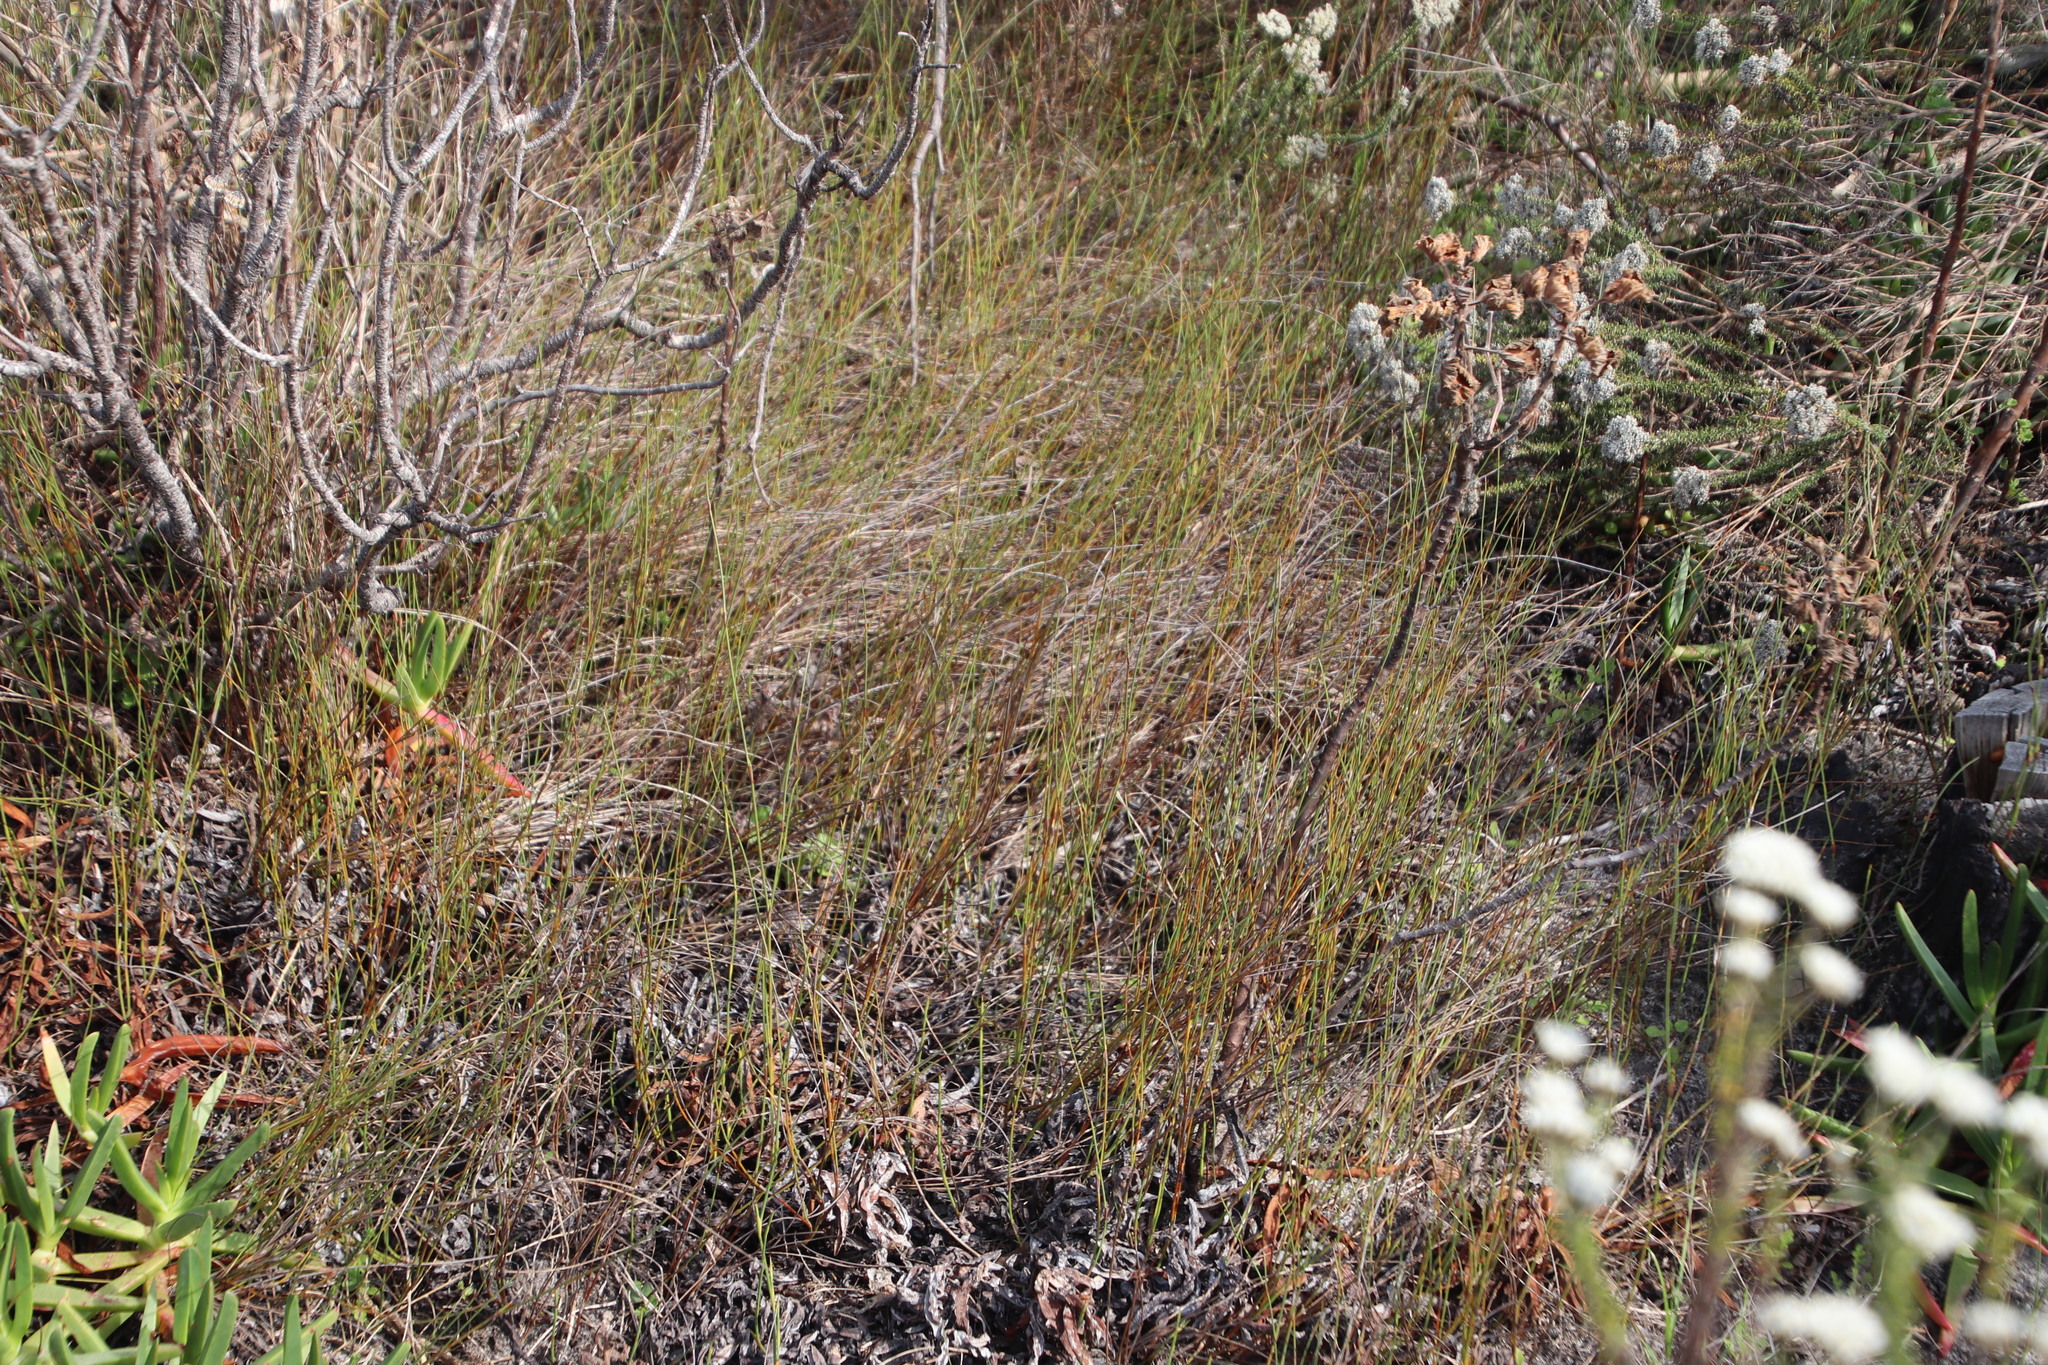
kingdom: Plantae
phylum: Tracheophyta
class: Liliopsida
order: Poales
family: Restionaceae
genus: Willdenowia
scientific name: Willdenowia sulcata
